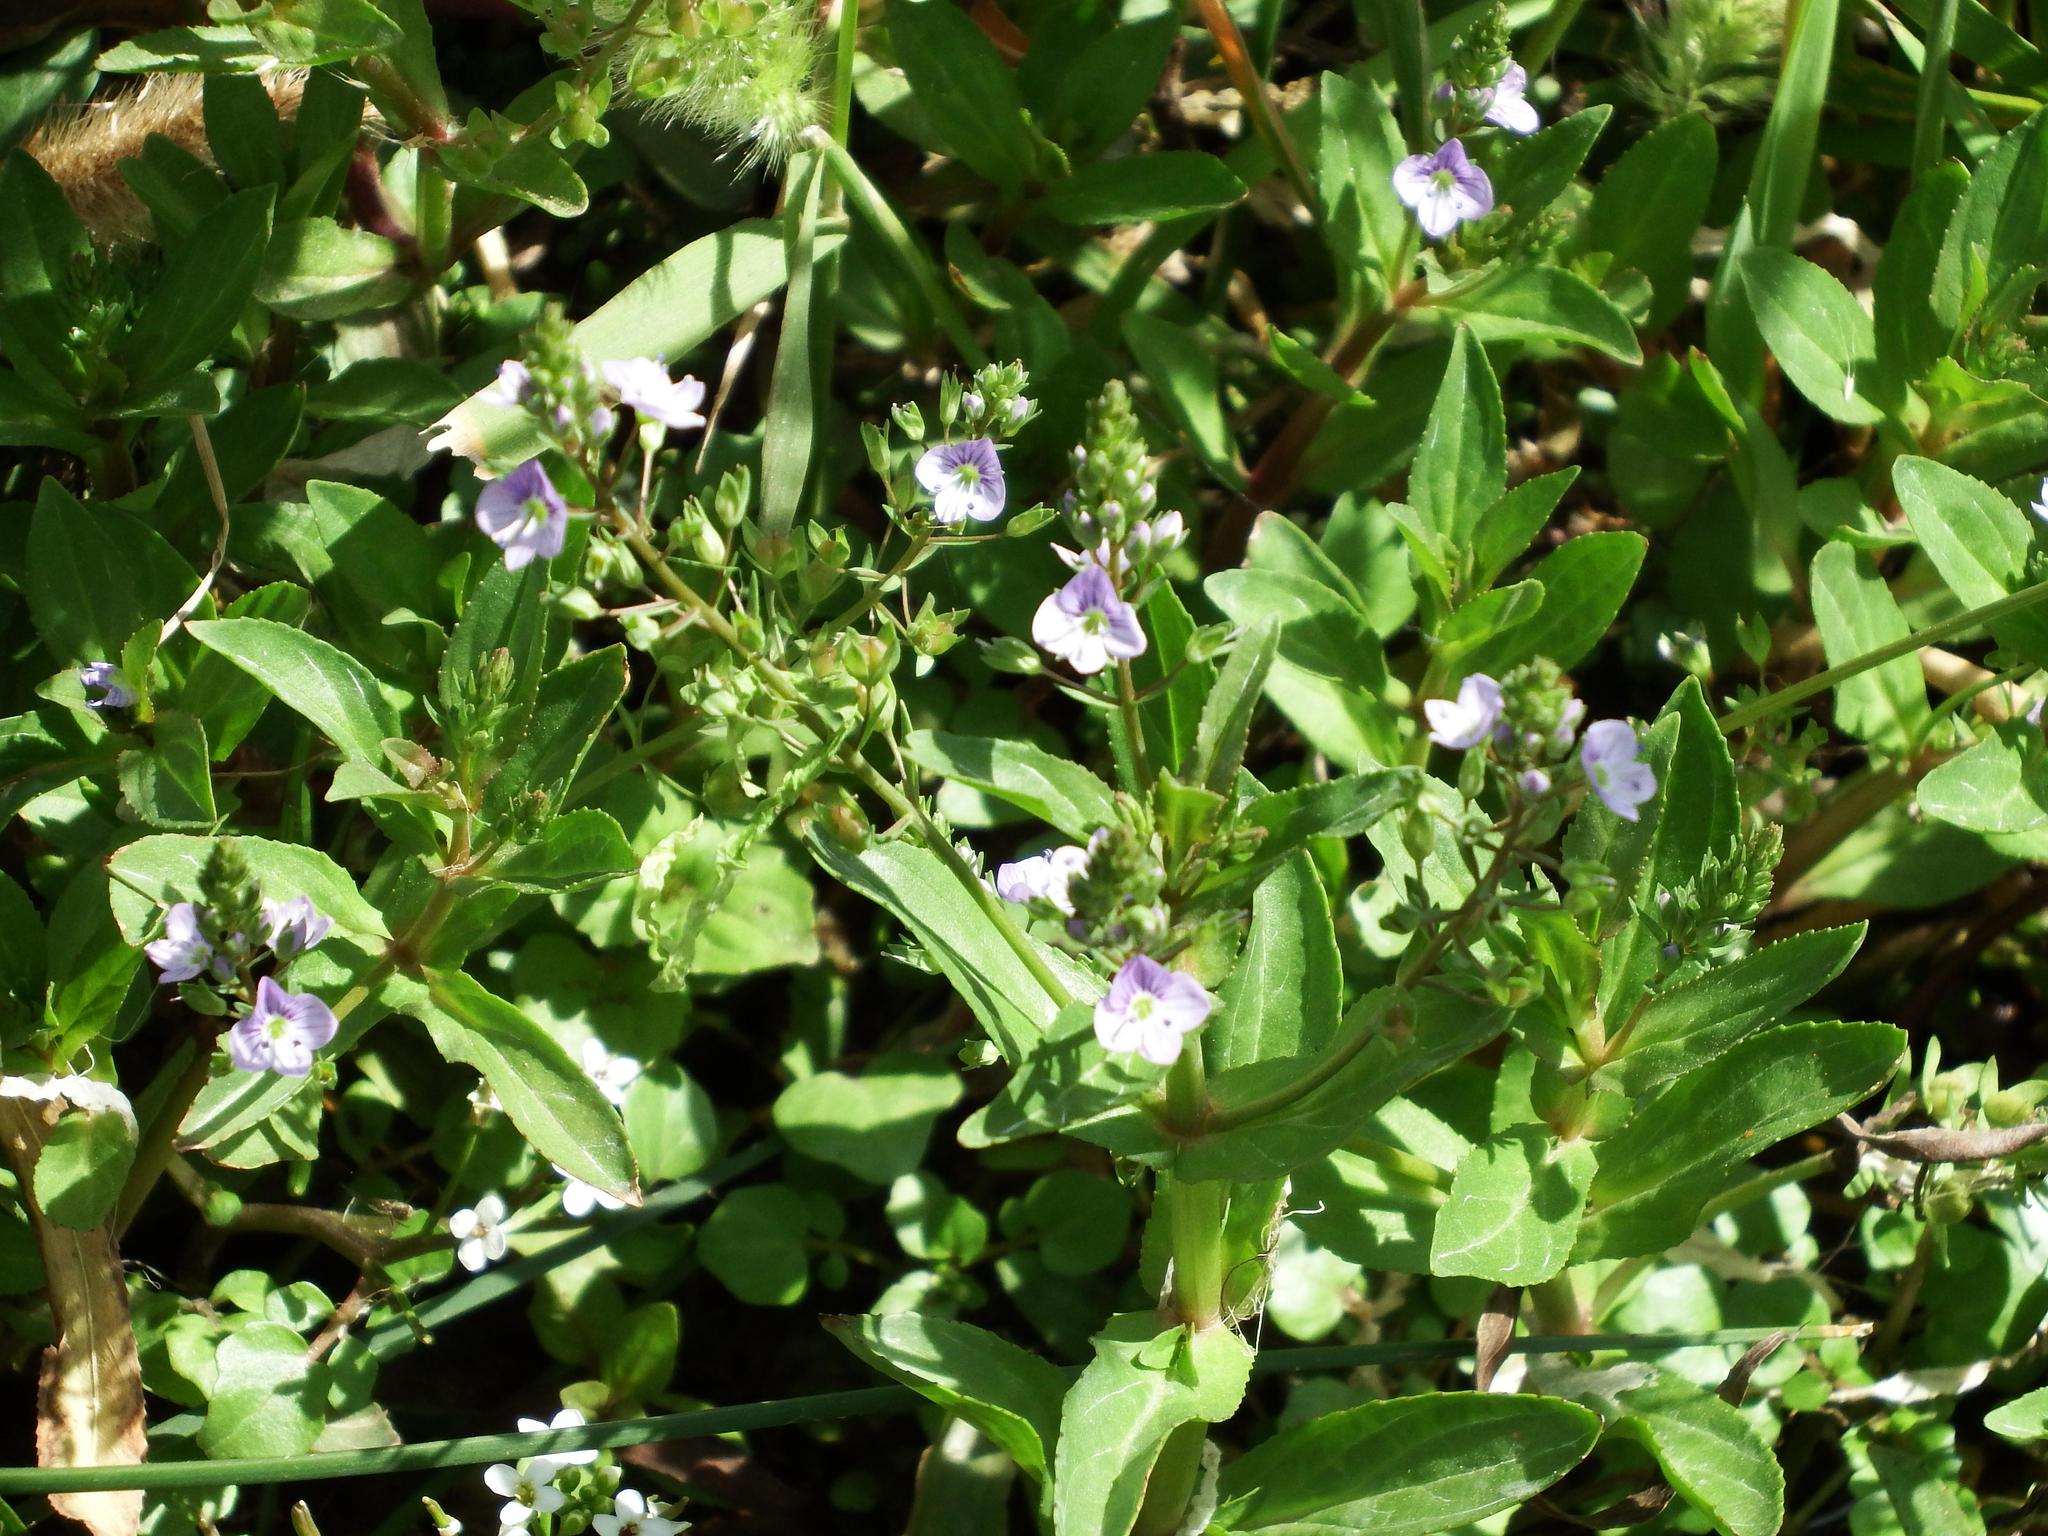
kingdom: Plantae
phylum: Tracheophyta
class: Magnoliopsida
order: Lamiales
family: Plantaginaceae
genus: Veronica
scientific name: Veronica anagallis-aquatica
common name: Water speedwell
